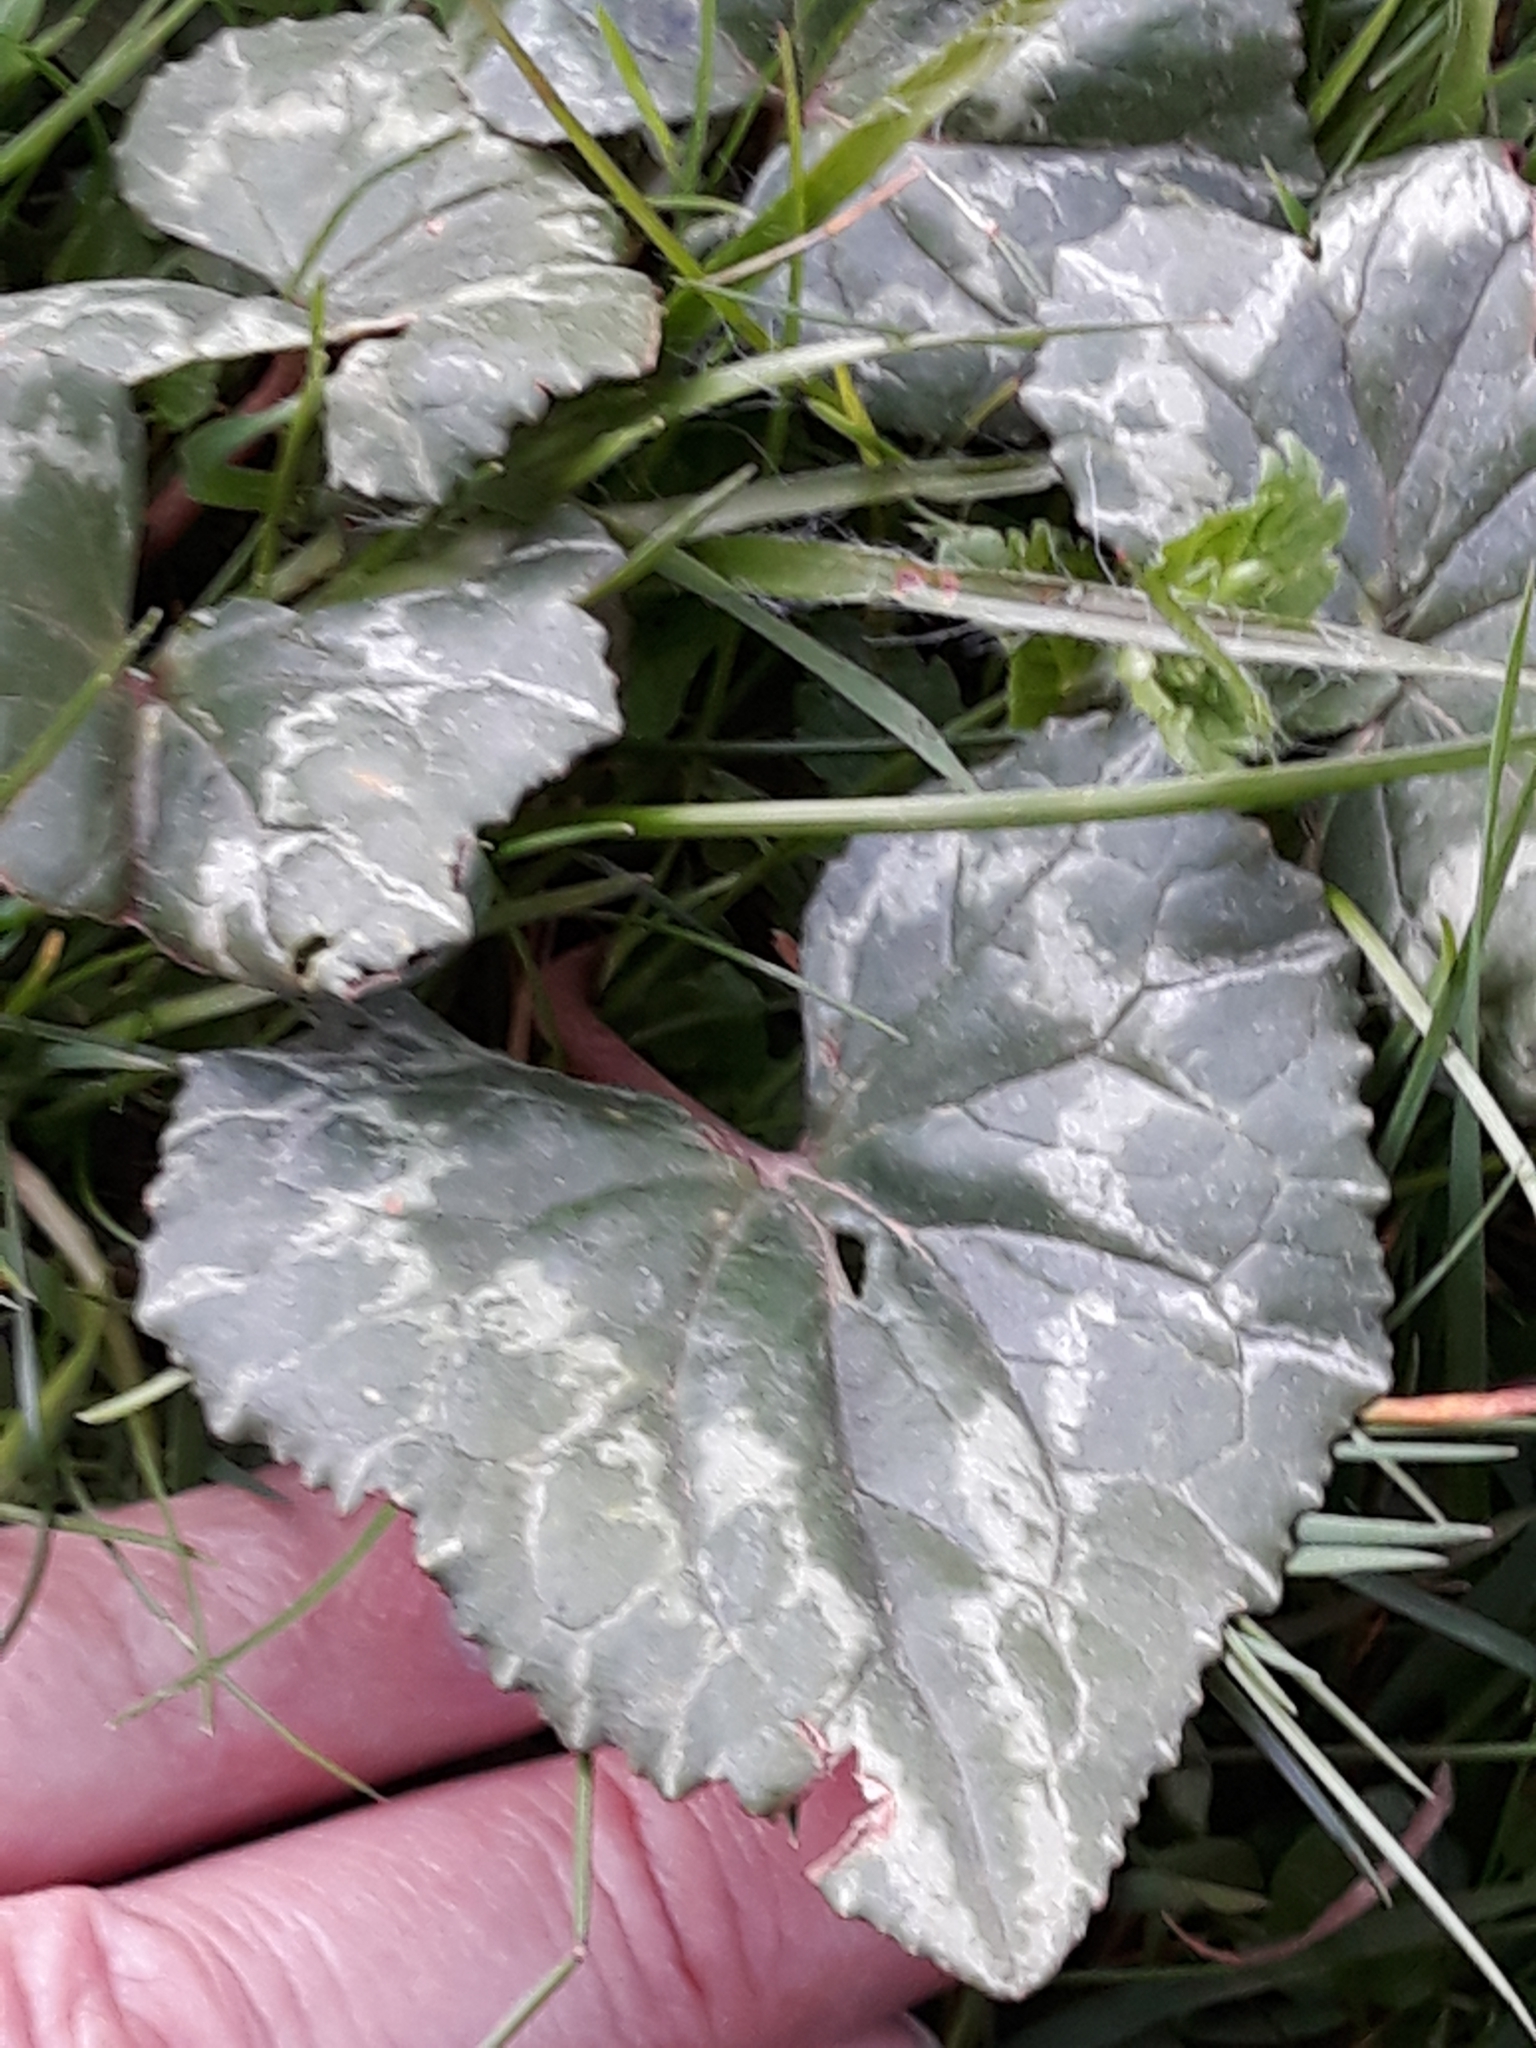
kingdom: Plantae
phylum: Tracheophyta
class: Magnoliopsida
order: Ericales
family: Primulaceae
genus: Cyclamen
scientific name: Cyclamen hederifolium
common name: Sowbread
